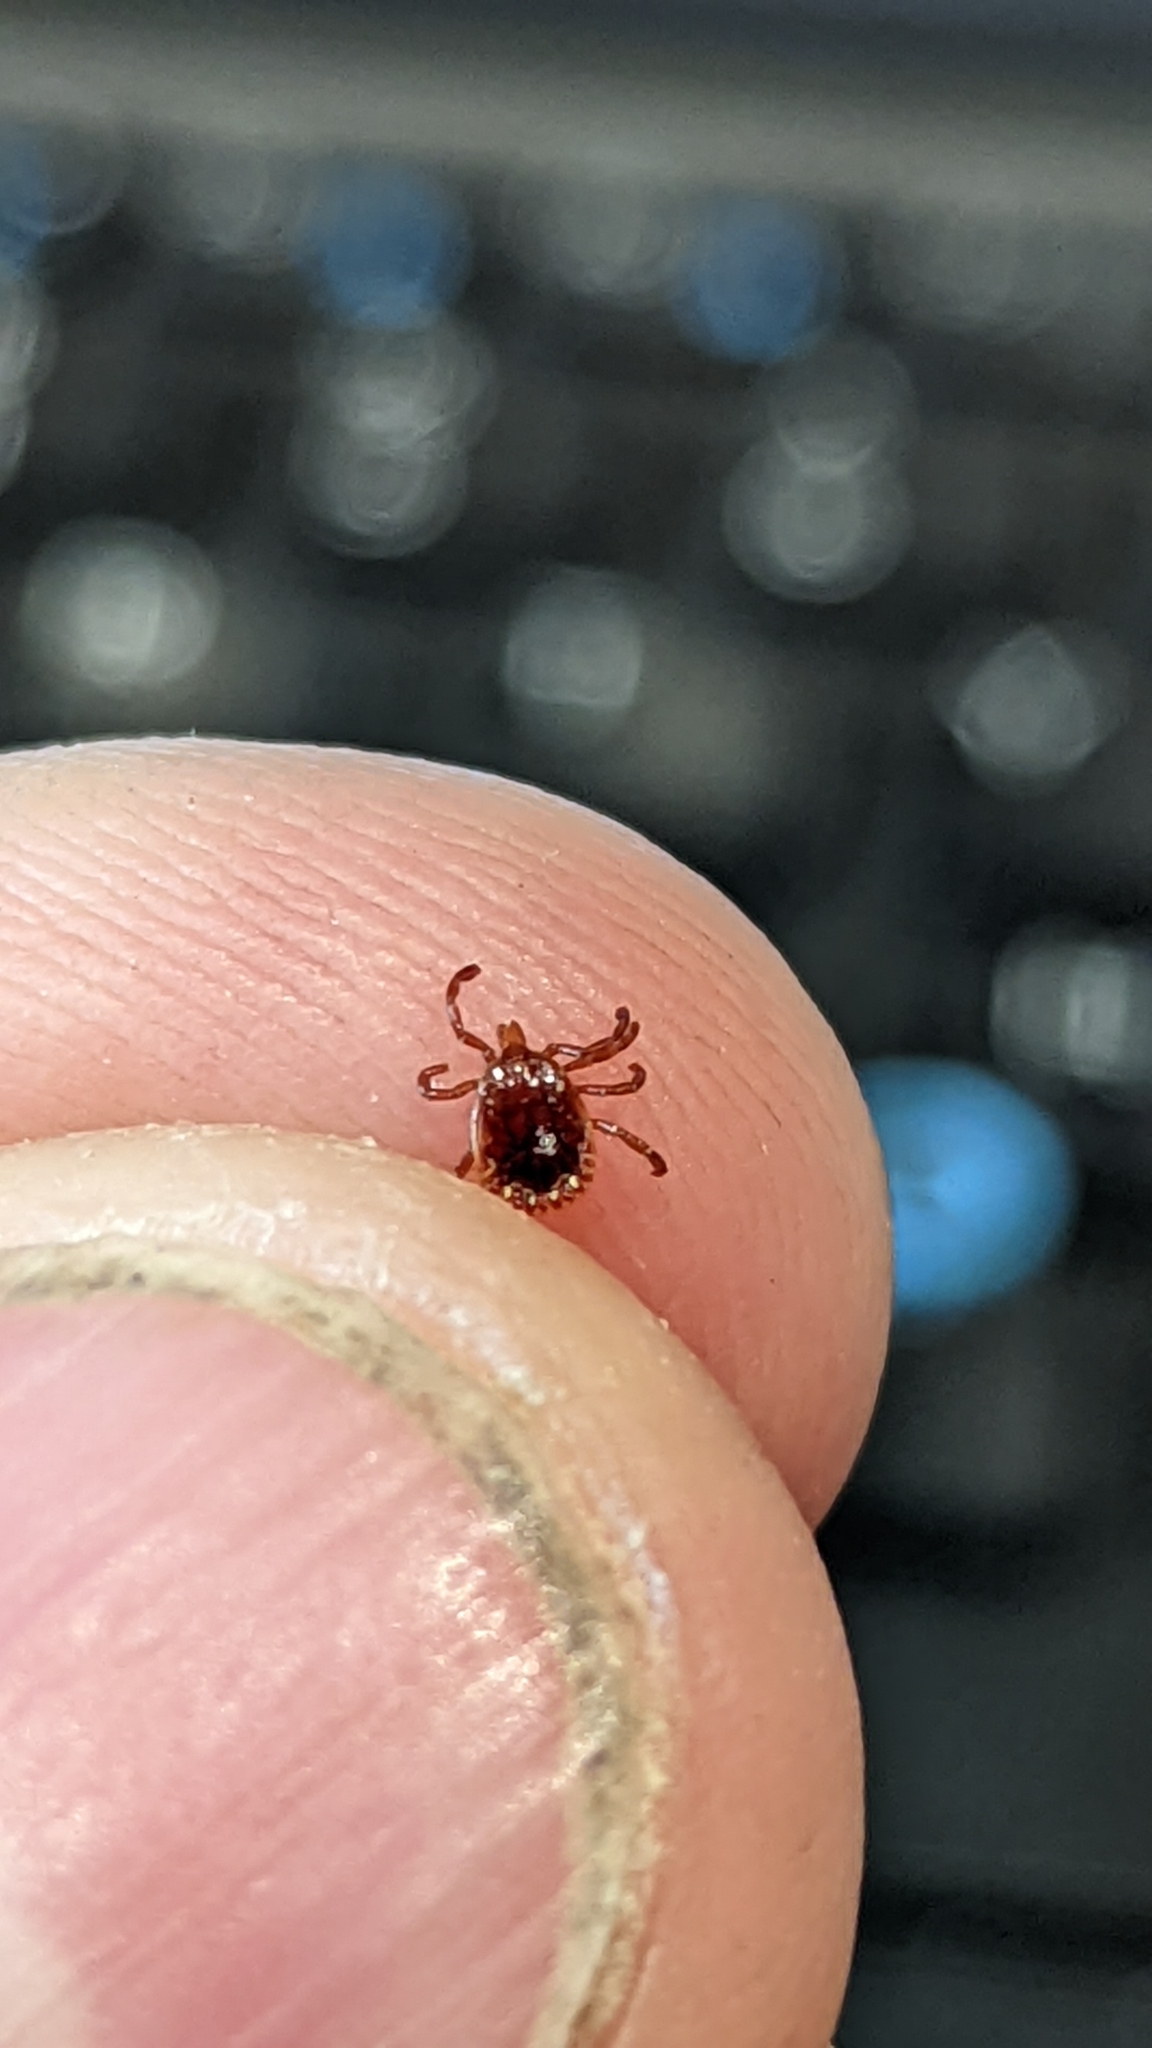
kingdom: Animalia
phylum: Arthropoda
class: Arachnida
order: Ixodida
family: Ixodidae
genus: Amblyomma
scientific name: Amblyomma americanum
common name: Lone star tick
